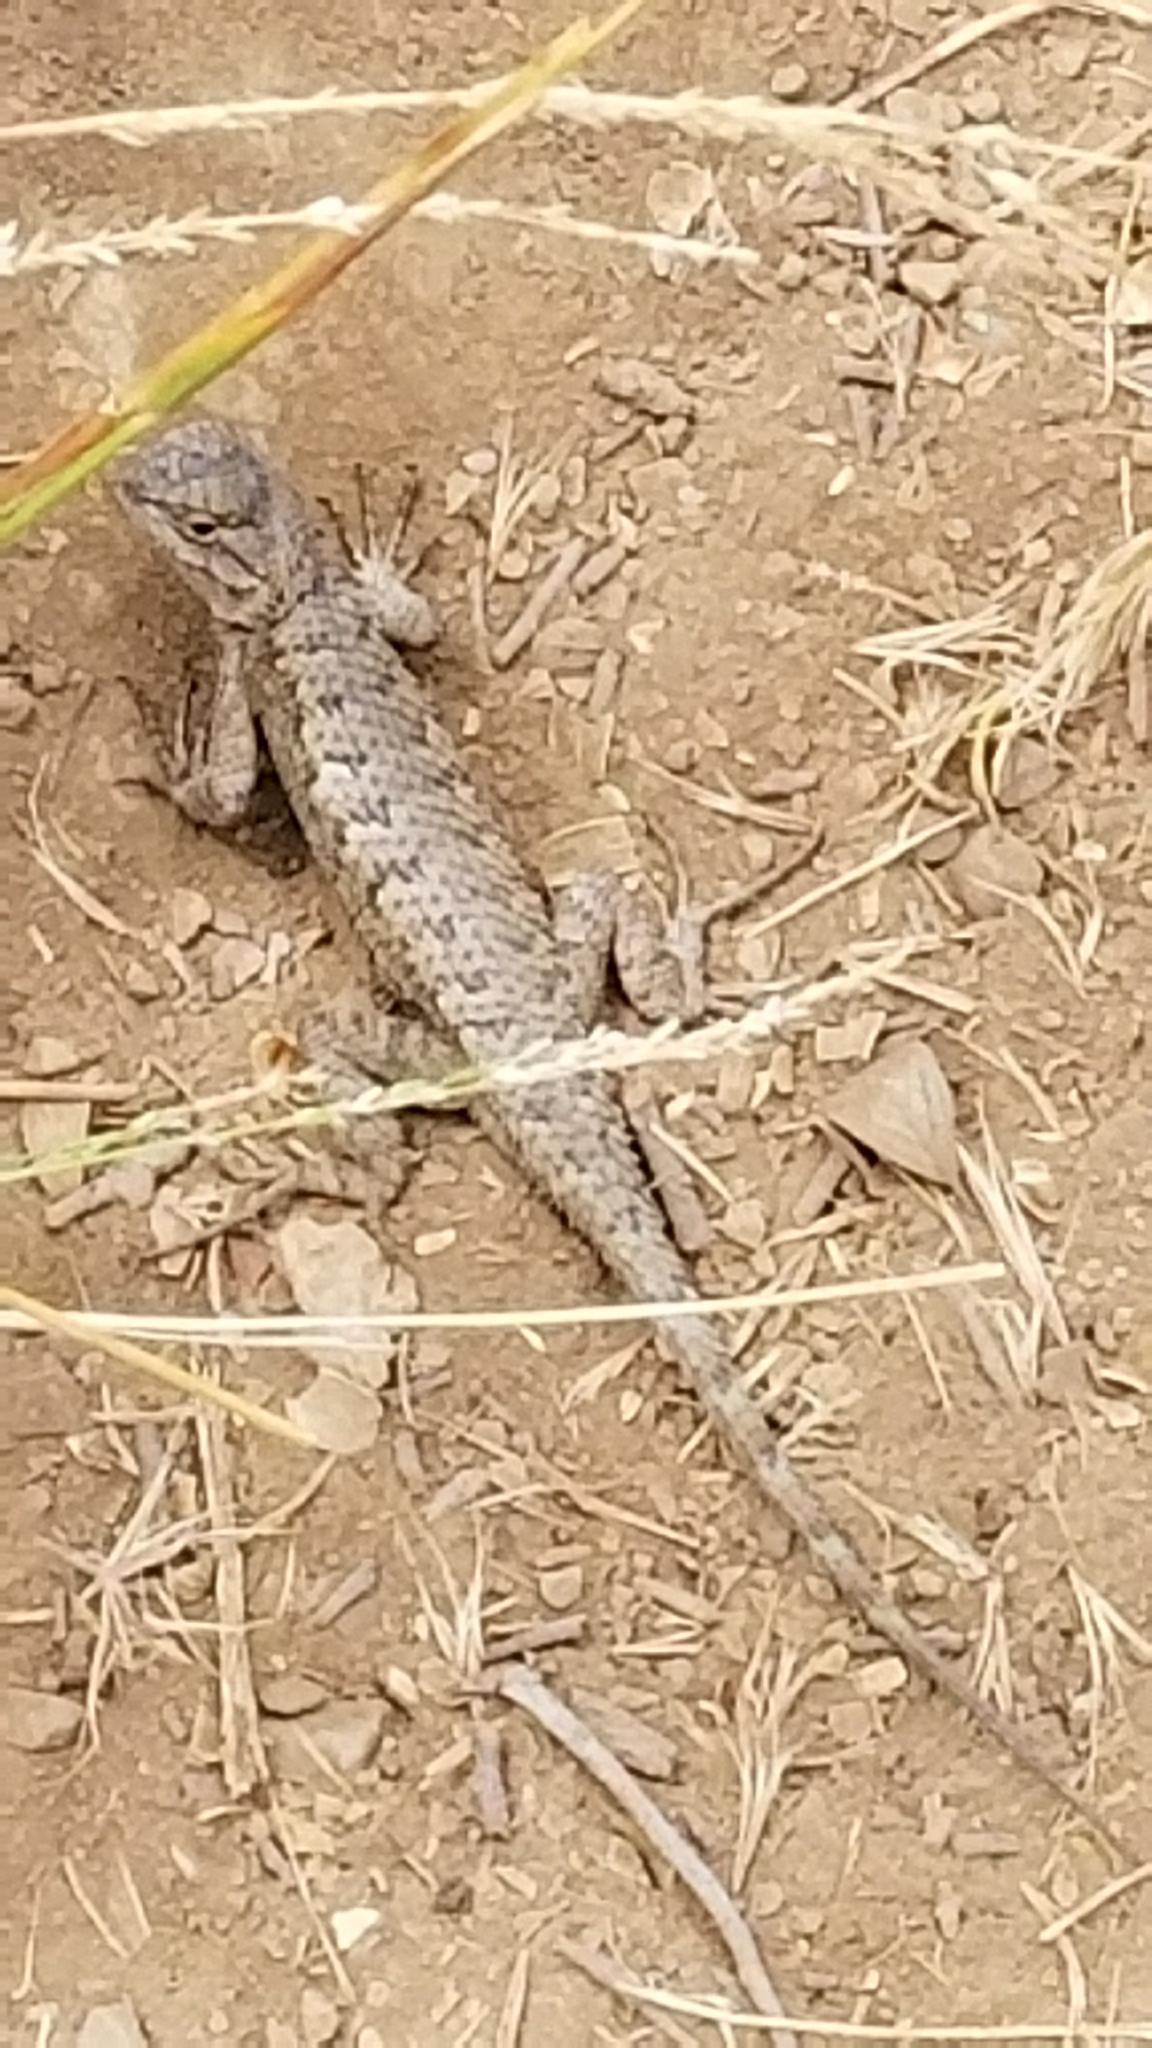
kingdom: Animalia
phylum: Chordata
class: Squamata
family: Phrynosomatidae
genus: Sceloporus
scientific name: Sceloporus occidentalis
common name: Western fence lizard
